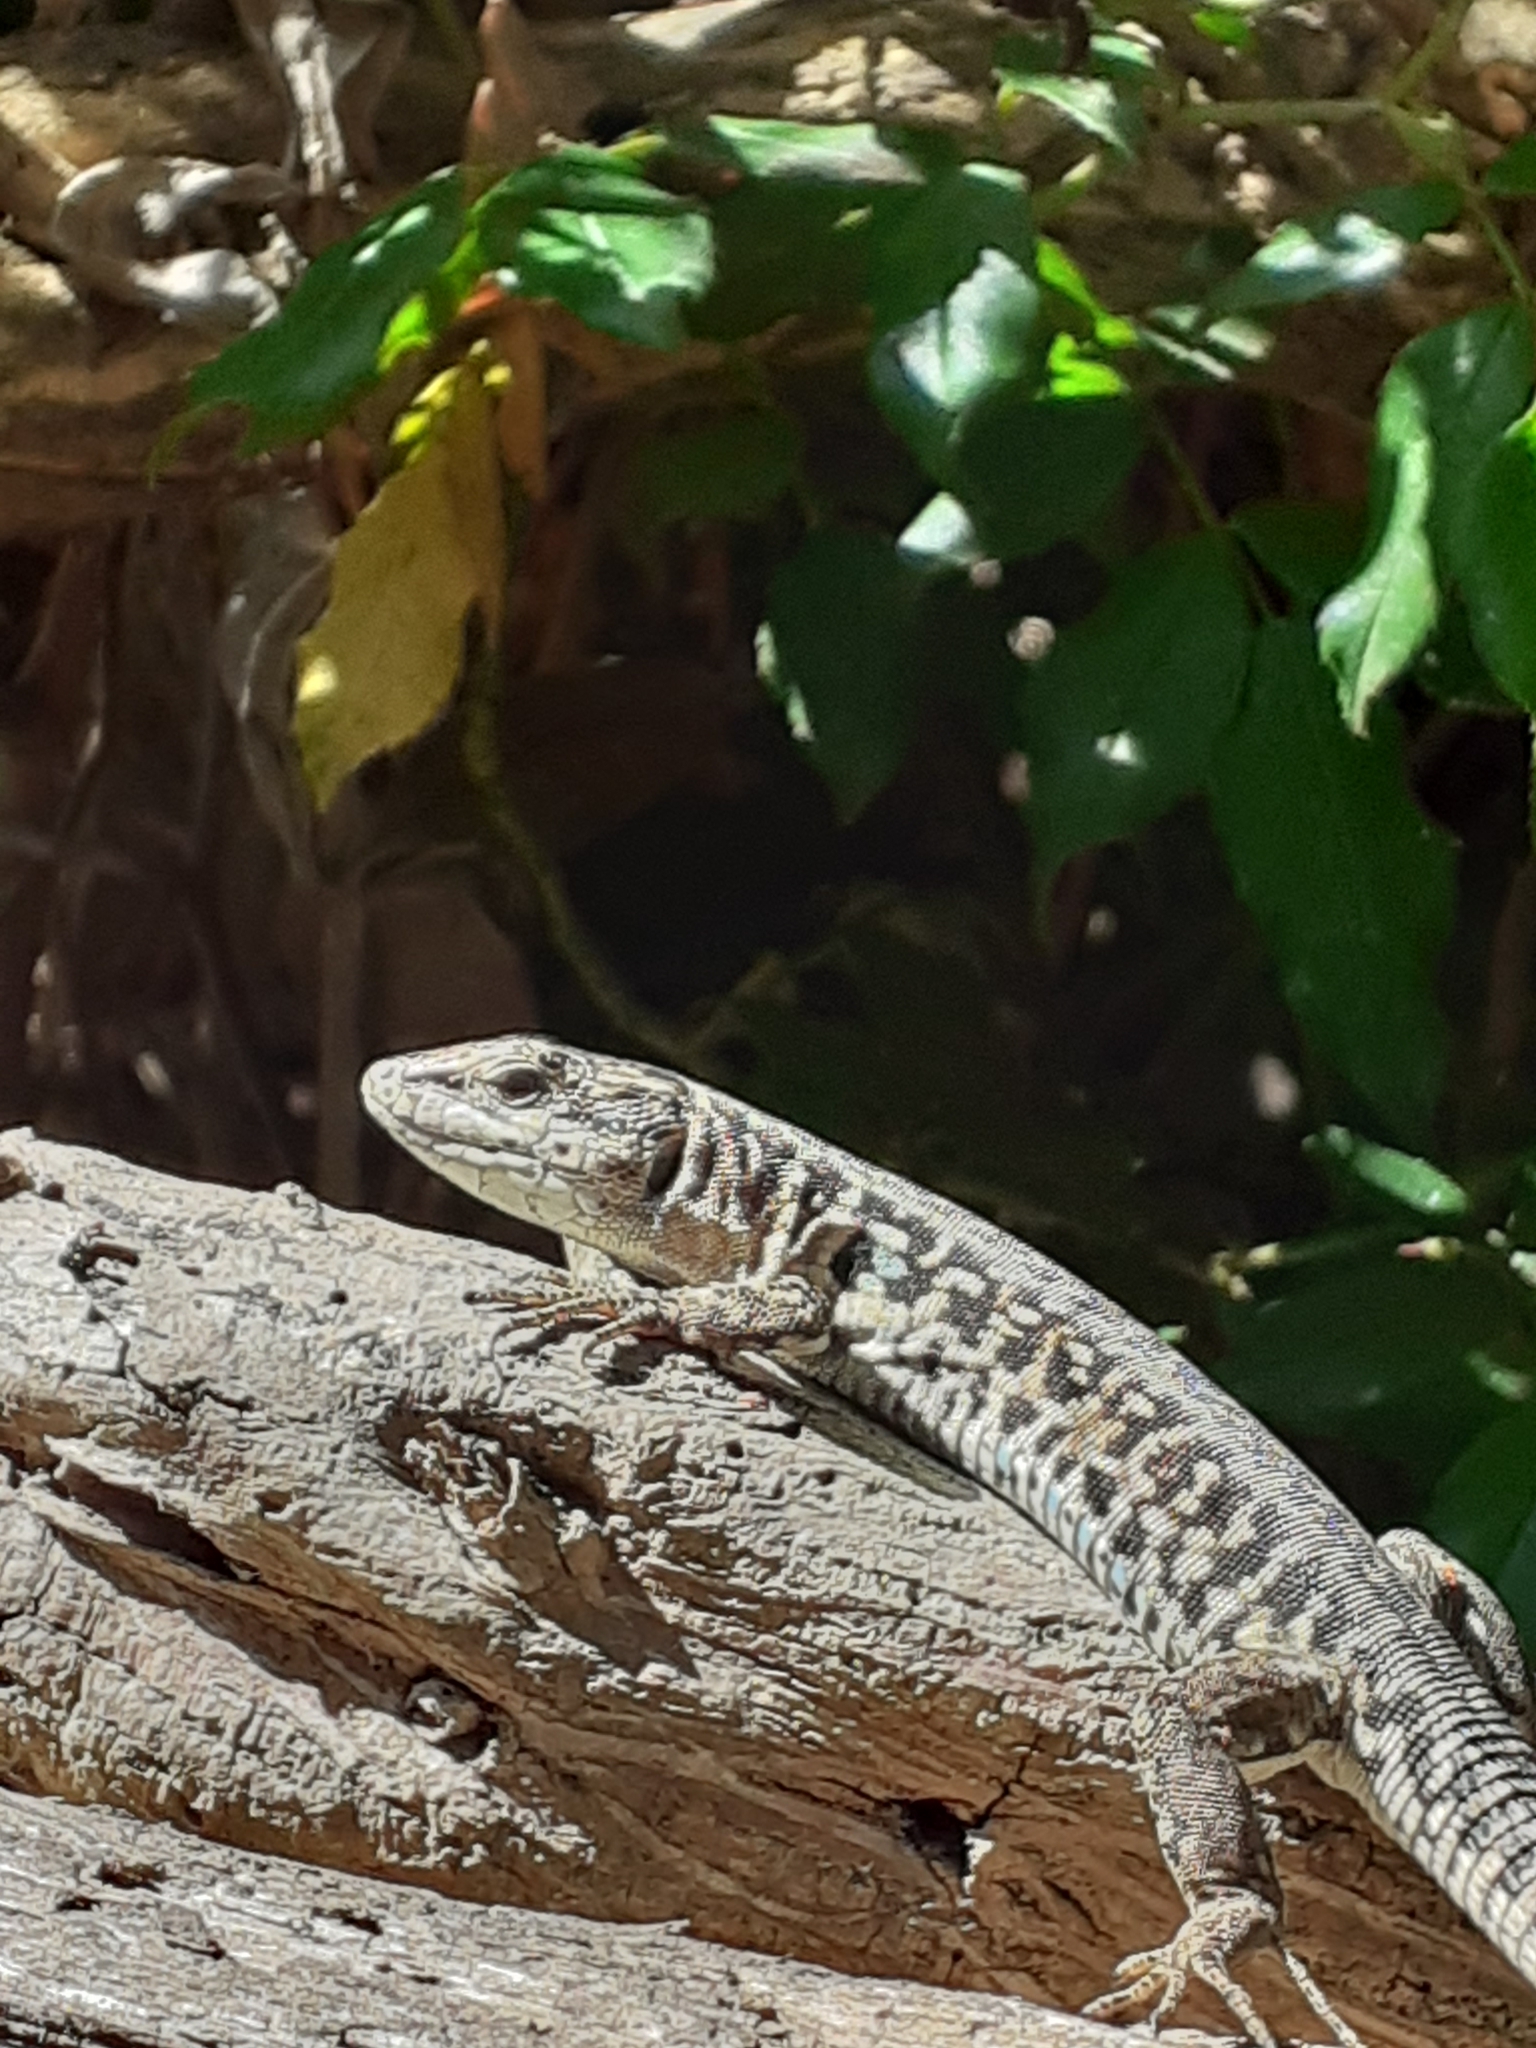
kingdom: Animalia
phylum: Chordata
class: Squamata
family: Lacertidae
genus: Podarcis
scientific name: Podarcis siculus
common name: Italian wall lizard
